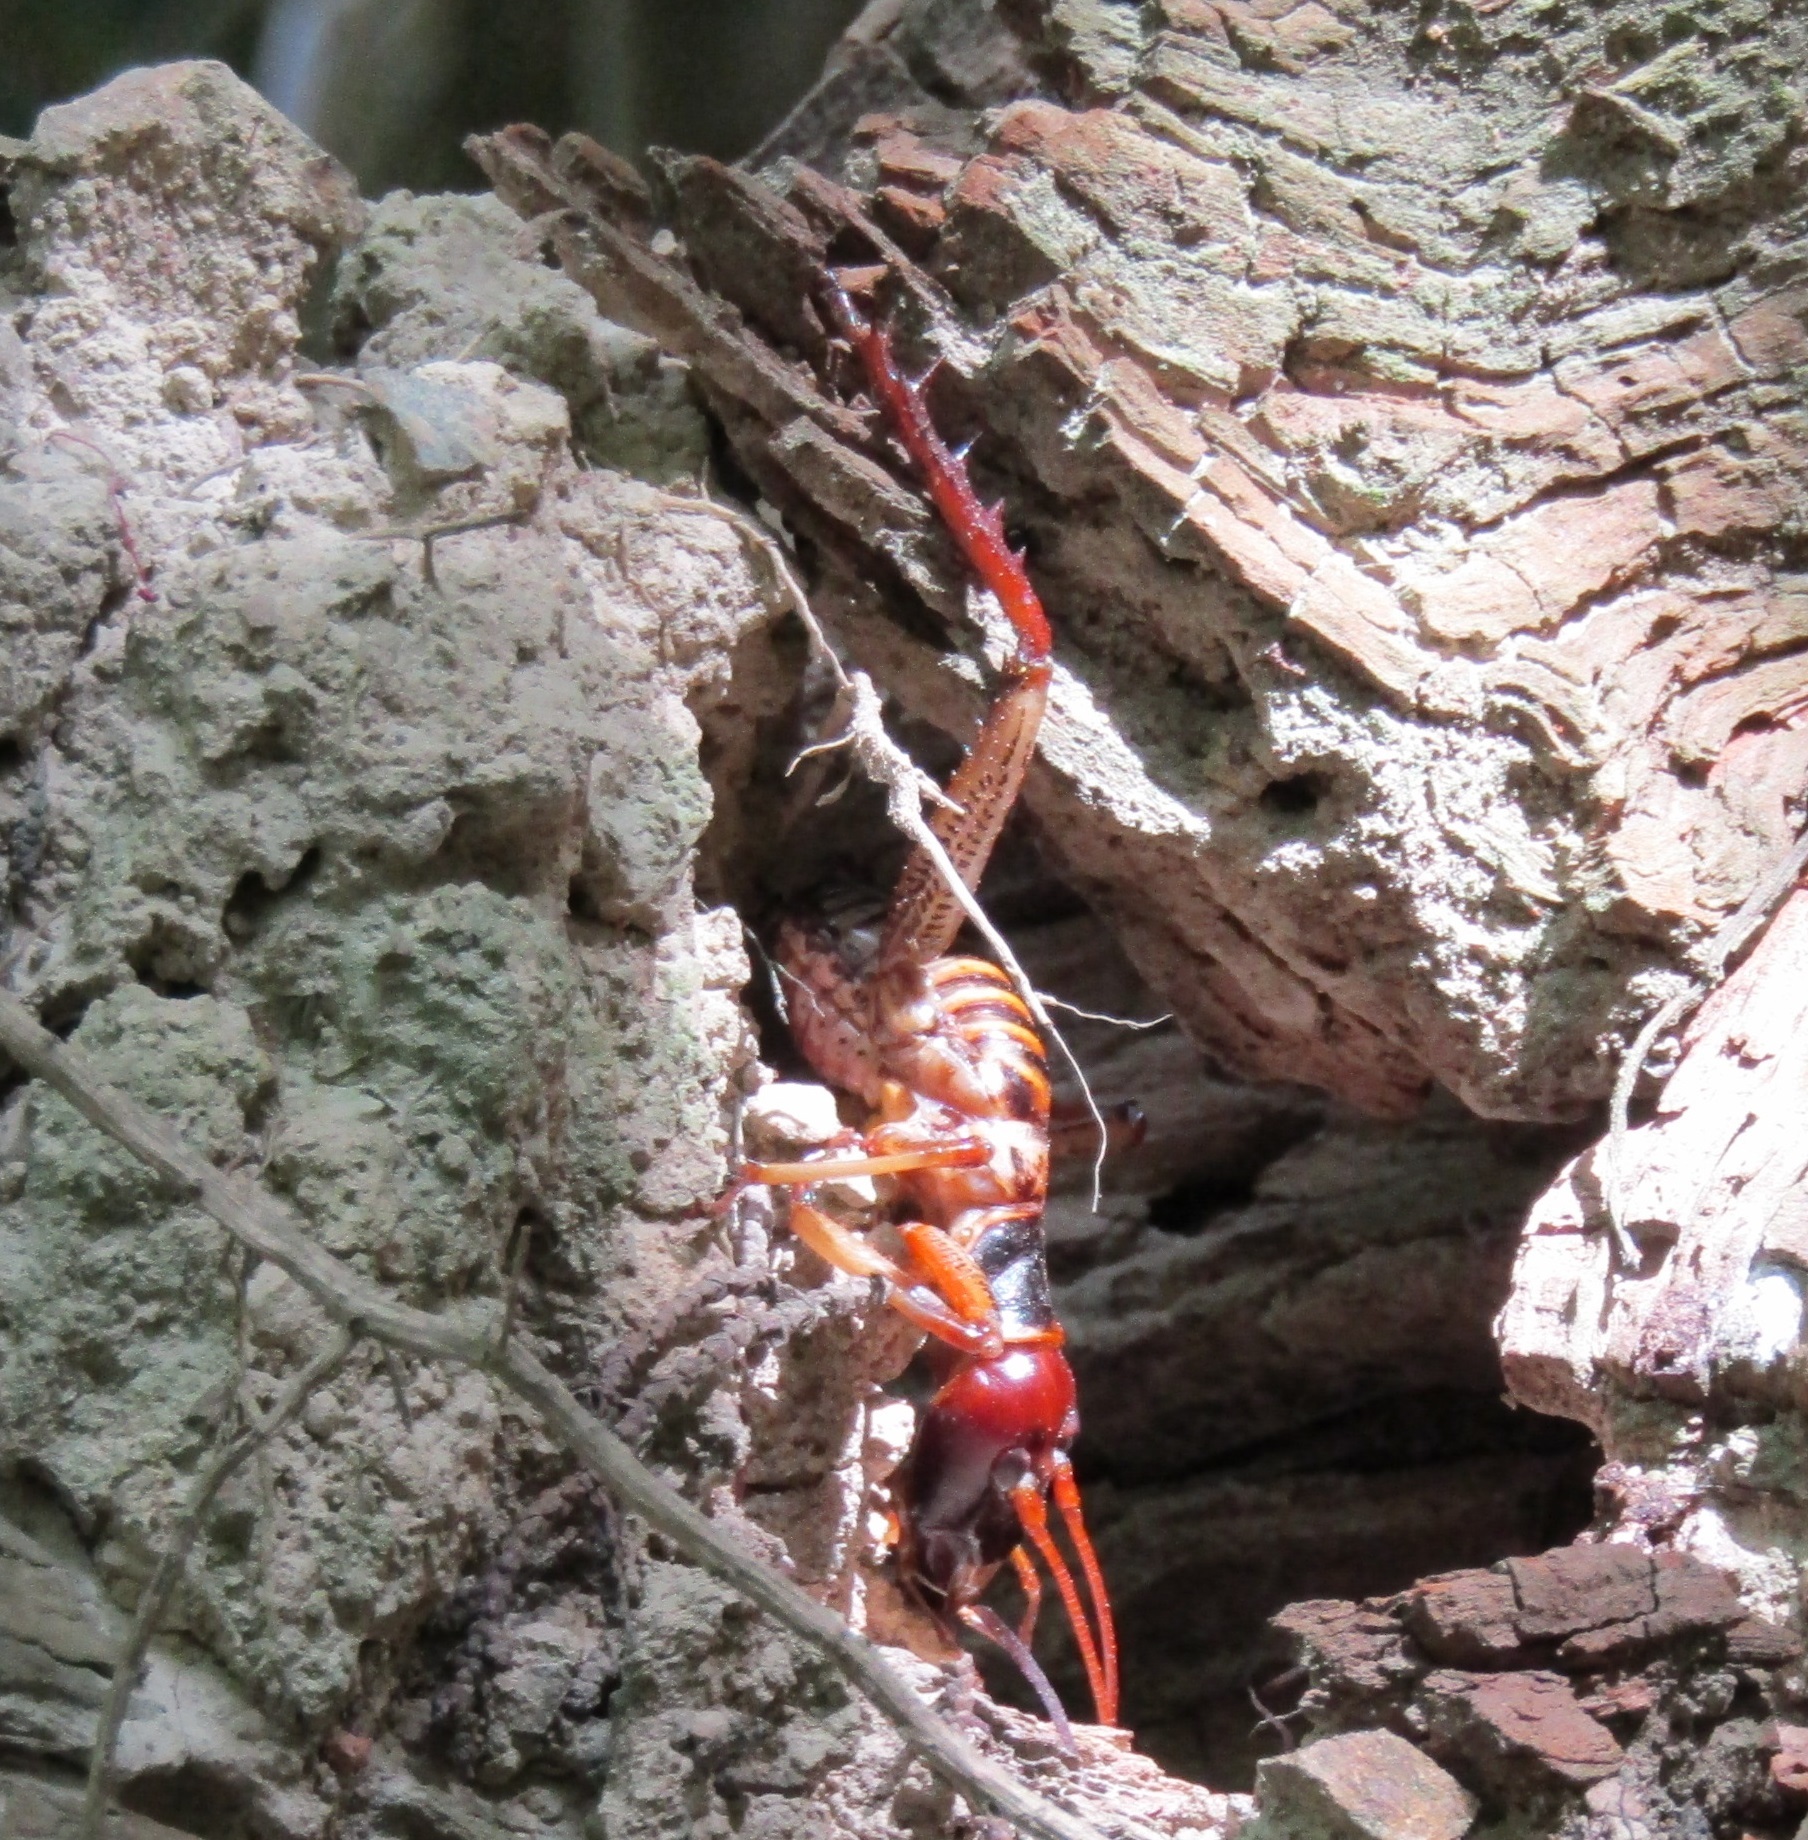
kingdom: Animalia
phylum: Arthropoda
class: Insecta
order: Orthoptera
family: Anostostomatidae
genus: Hemideina
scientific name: Hemideina crassidens
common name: Wellington tree weta
